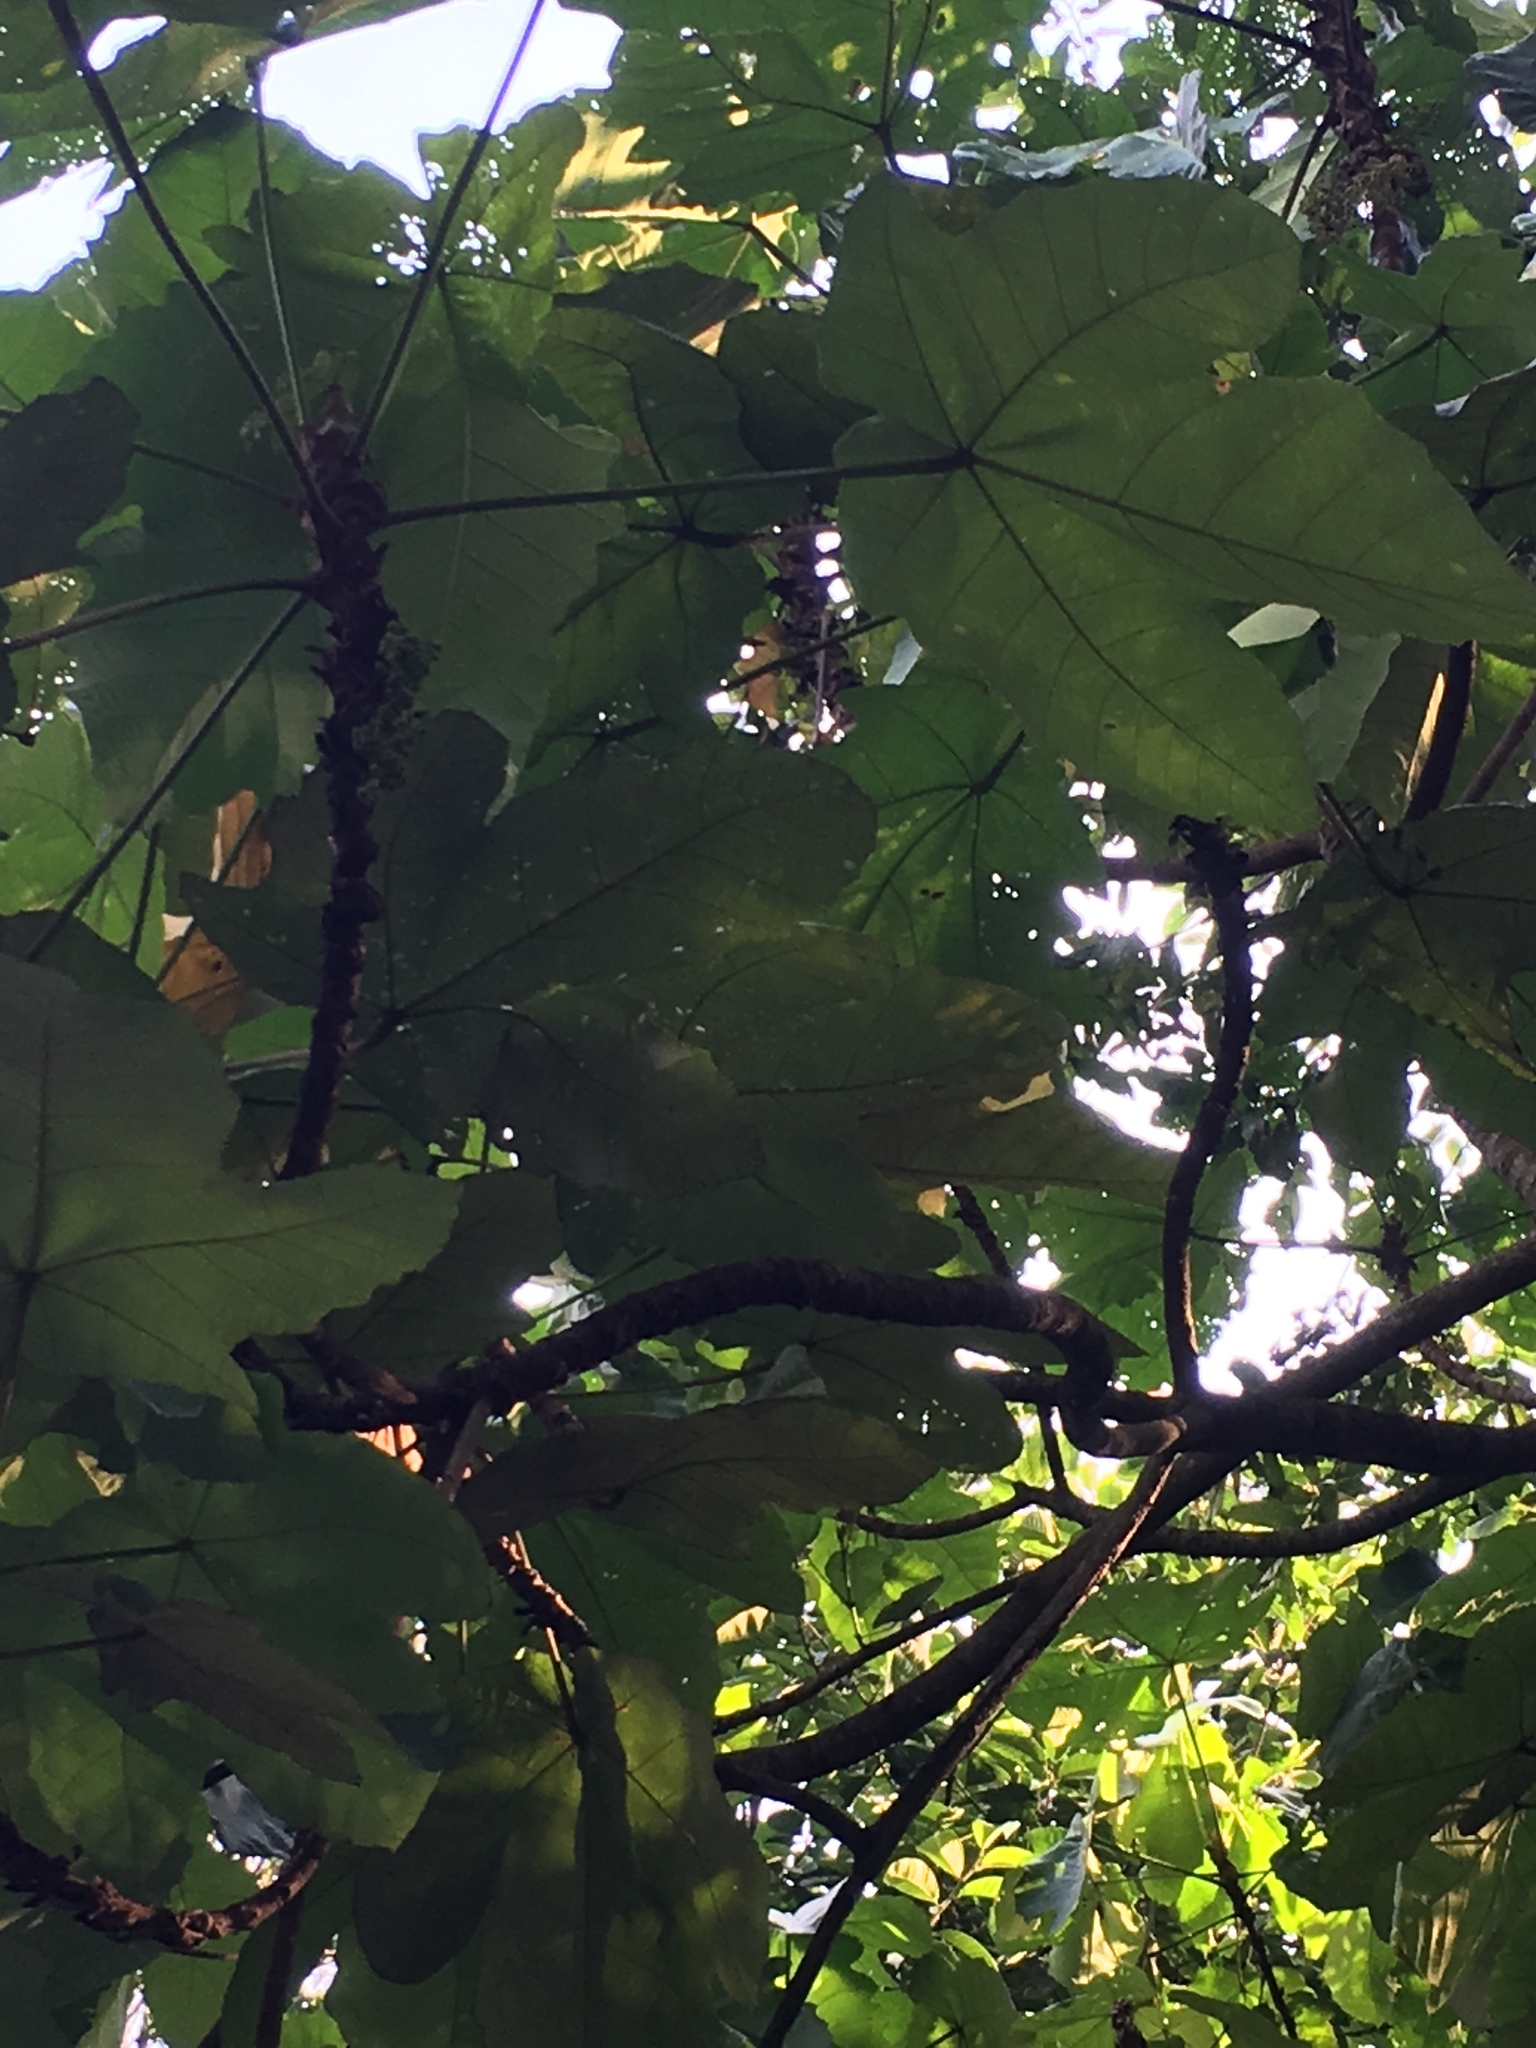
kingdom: Plantae
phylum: Tracheophyta
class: Magnoliopsida
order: Malpighiales
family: Euphorbiaceae
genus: Macaranga
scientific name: Macaranga gigantea
